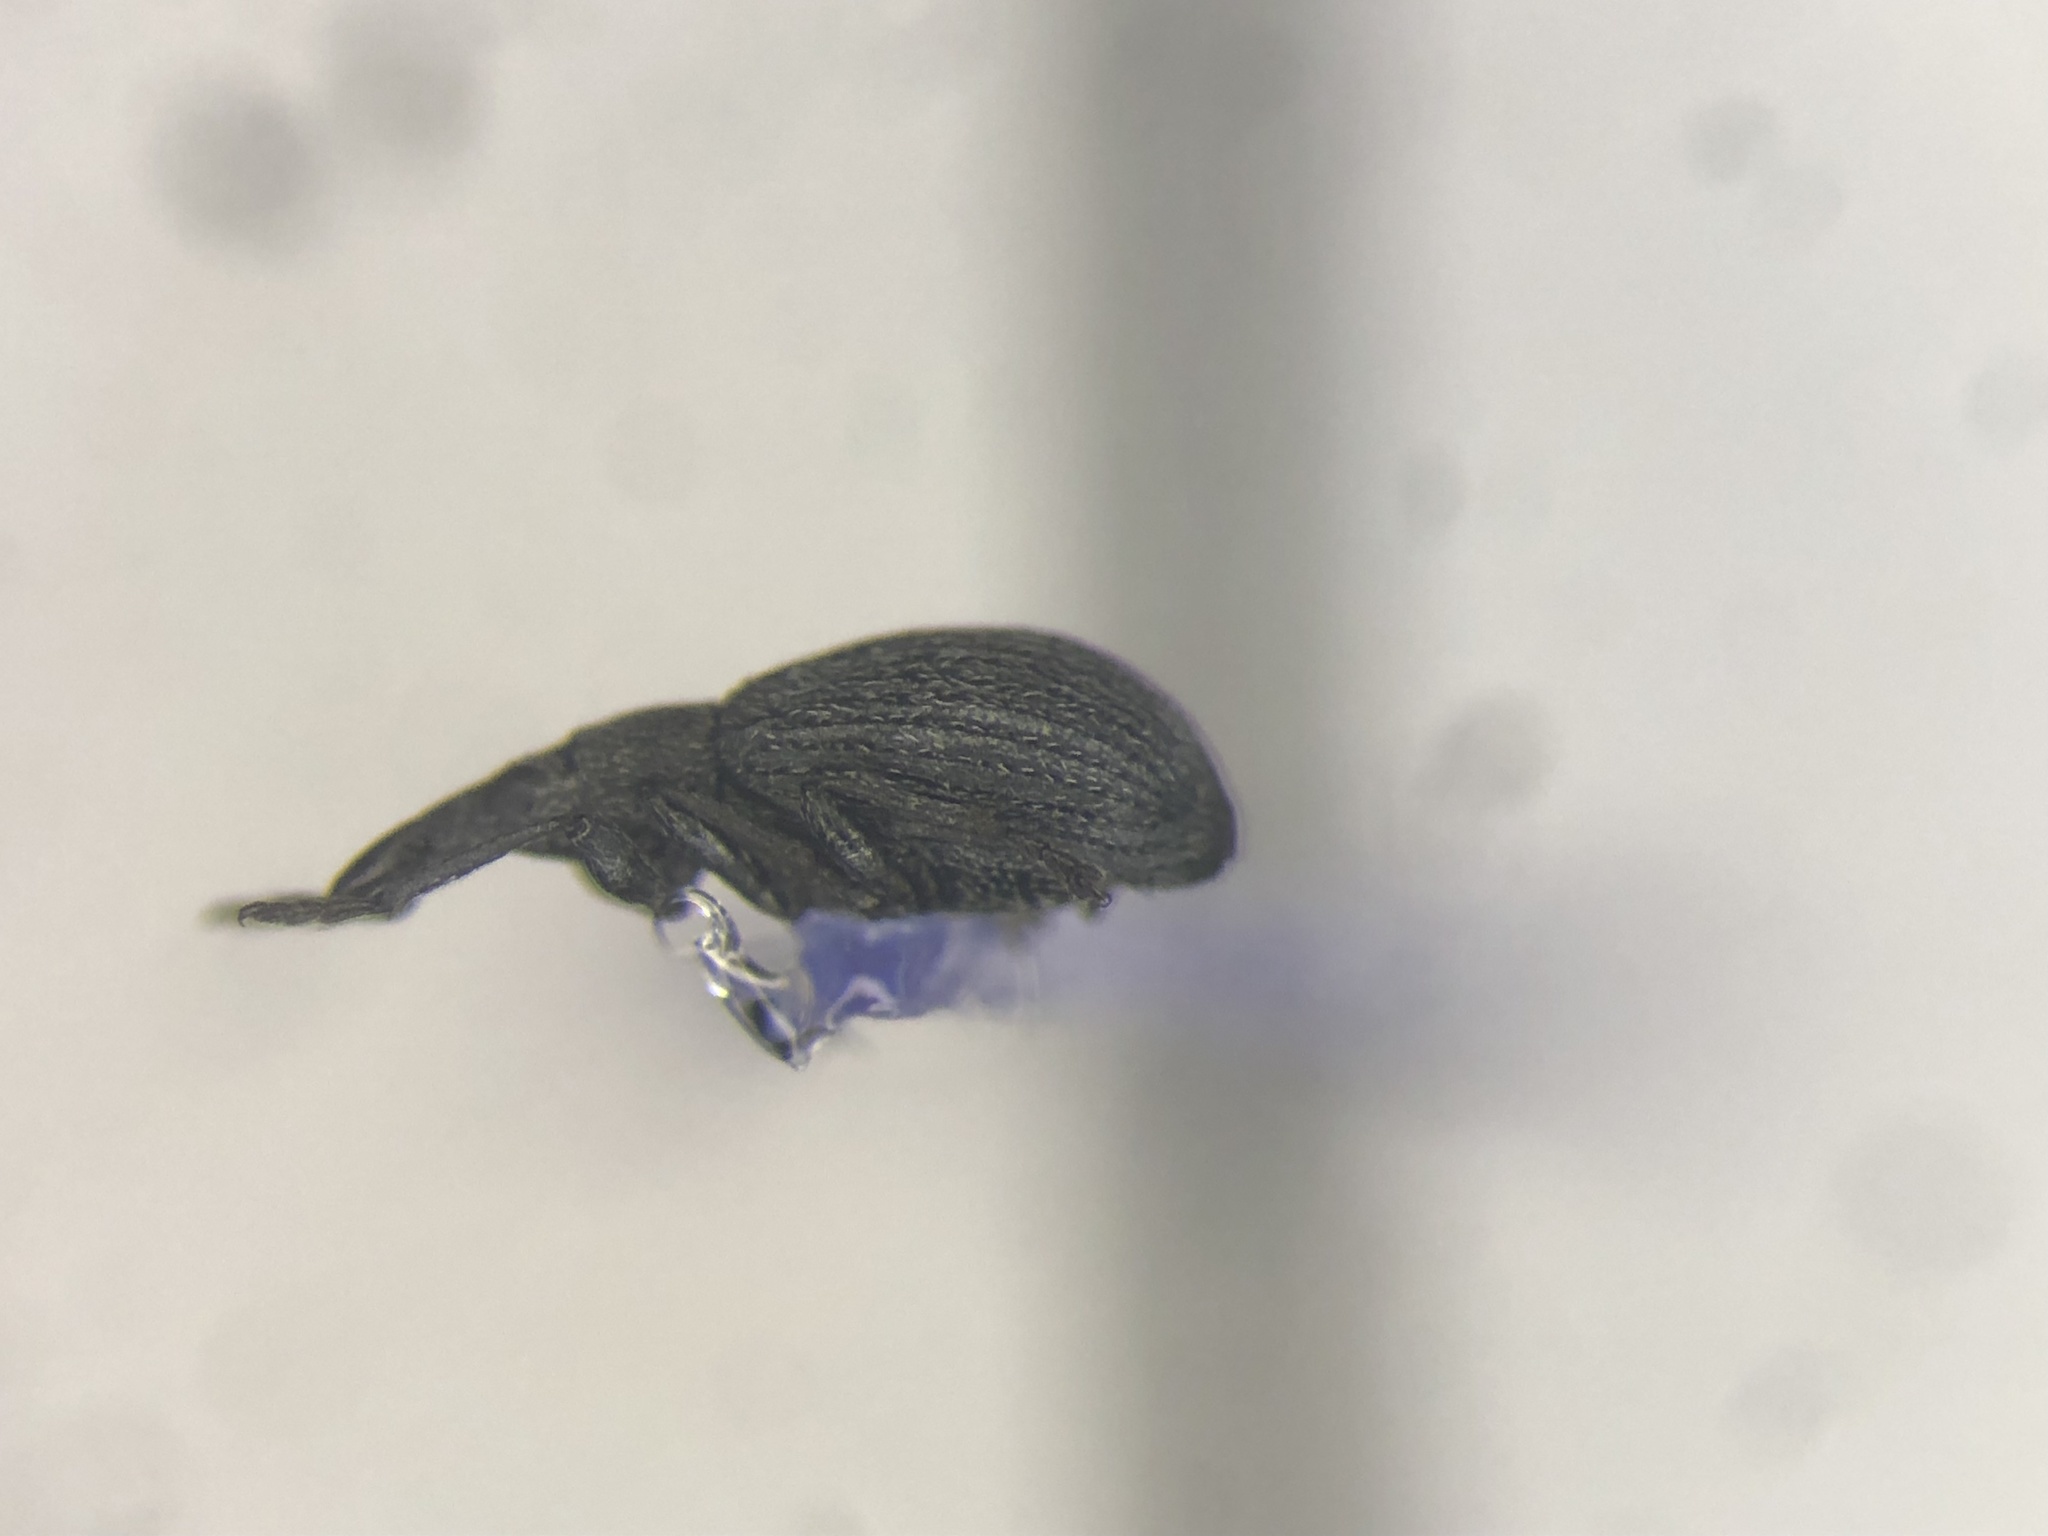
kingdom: Animalia
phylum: Arthropoda
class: Insecta
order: Coleoptera
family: Brentidae
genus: Perapion
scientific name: Perapion curtirostre
